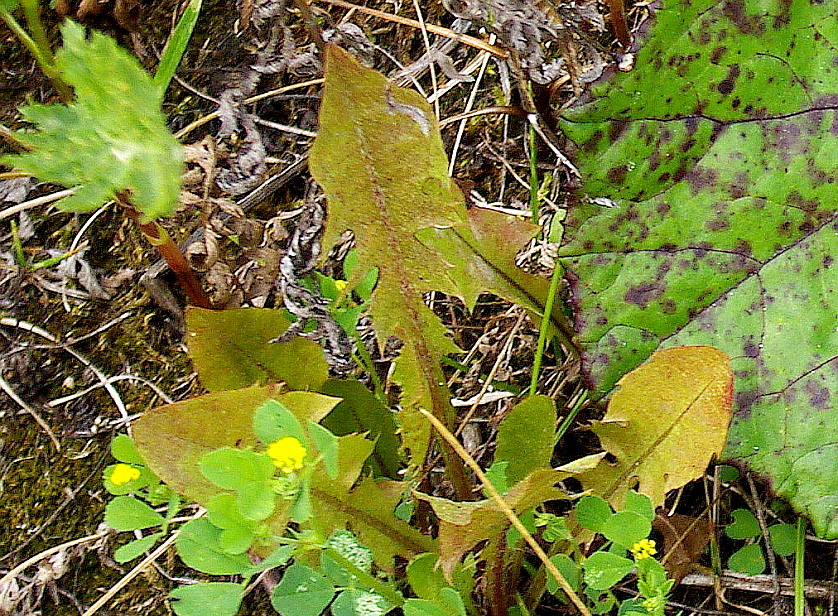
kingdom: Plantae
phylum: Tracheophyta
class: Magnoliopsida
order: Asterales
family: Asteraceae
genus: Taraxacum
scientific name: Taraxacum officinale
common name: Common dandelion
